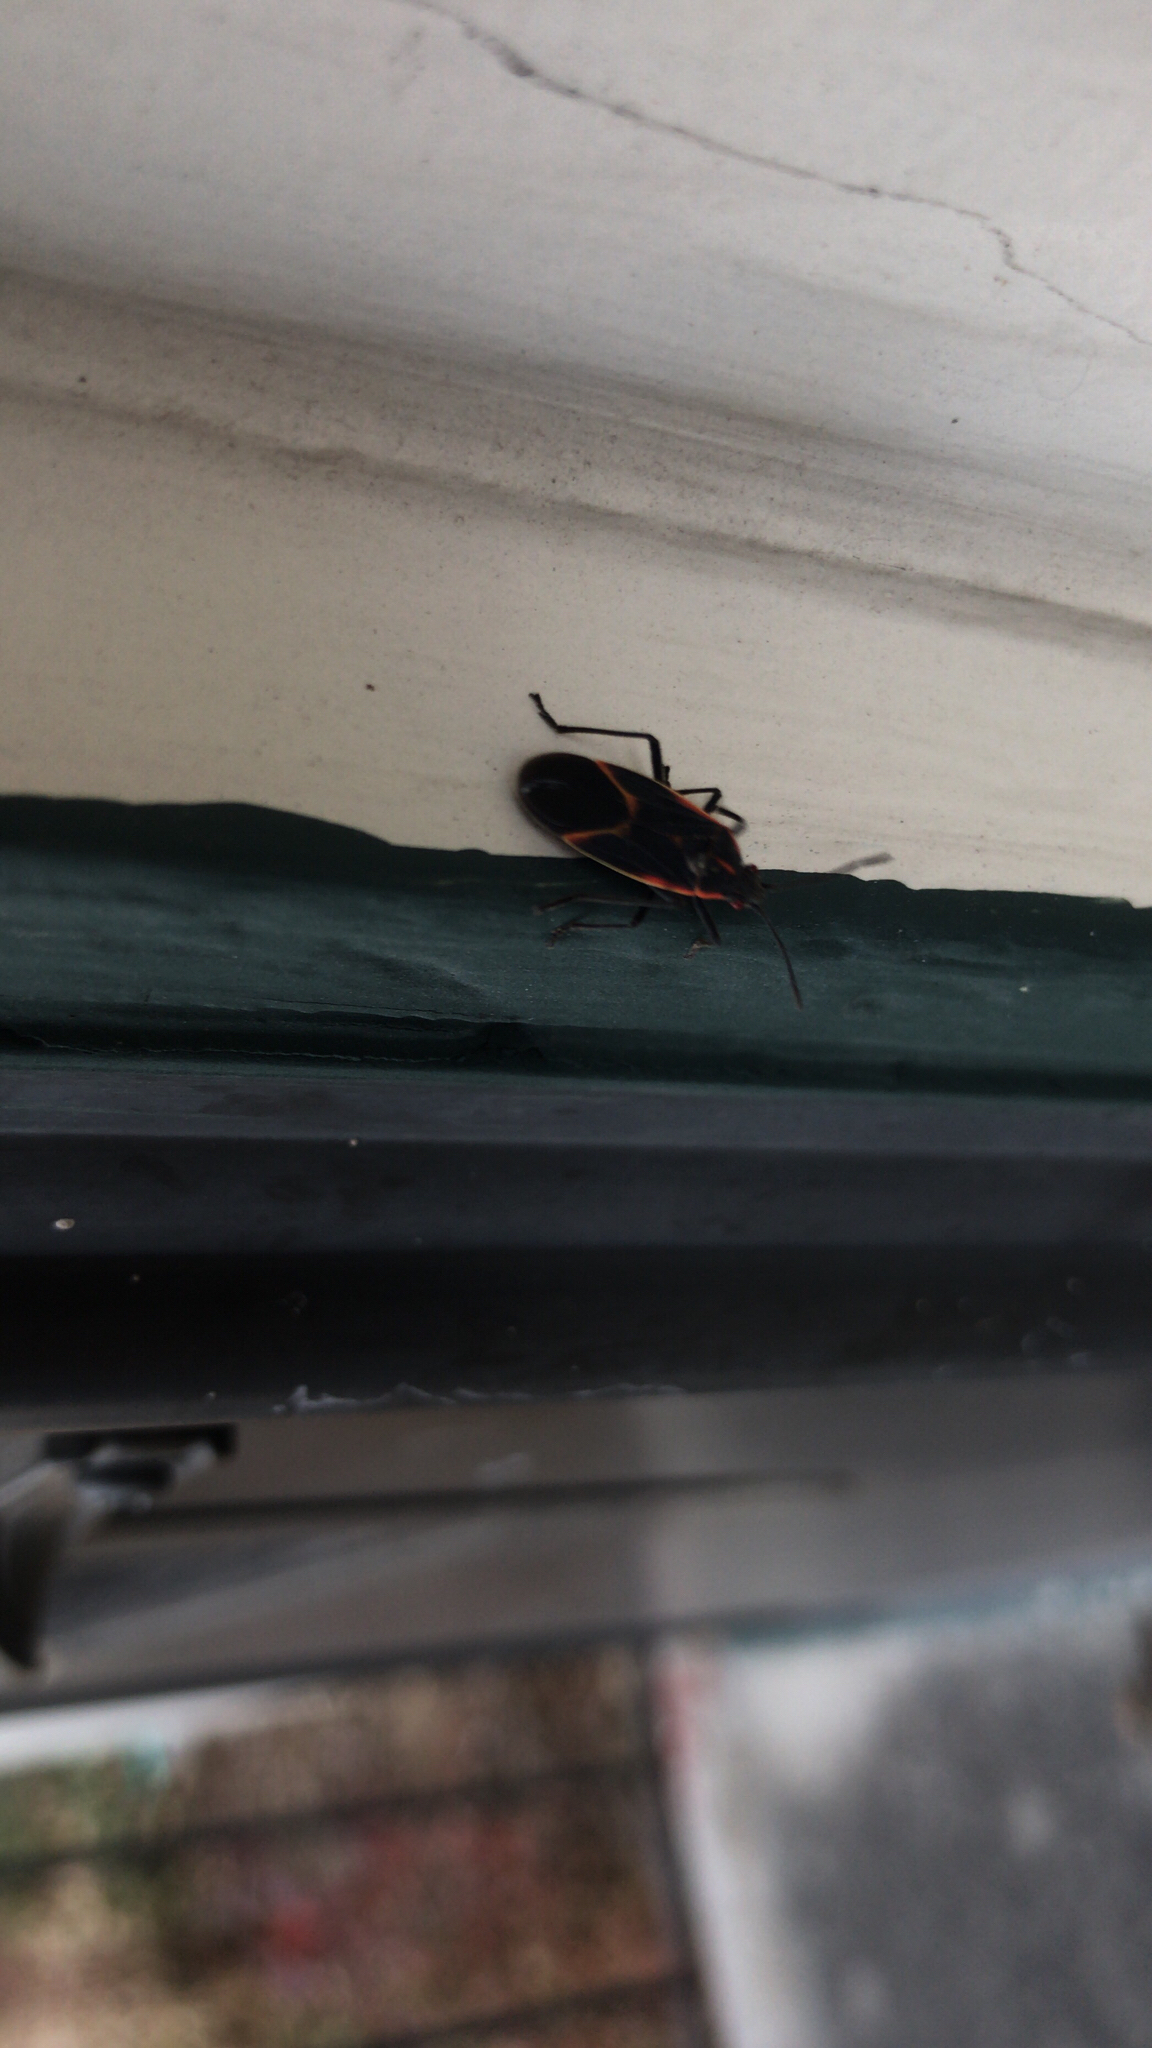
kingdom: Animalia
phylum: Arthropoda
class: Insecta
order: Hemiptera
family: Rhopalidae
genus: Boisea
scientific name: Boisea trivittata
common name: Boxelder bug
